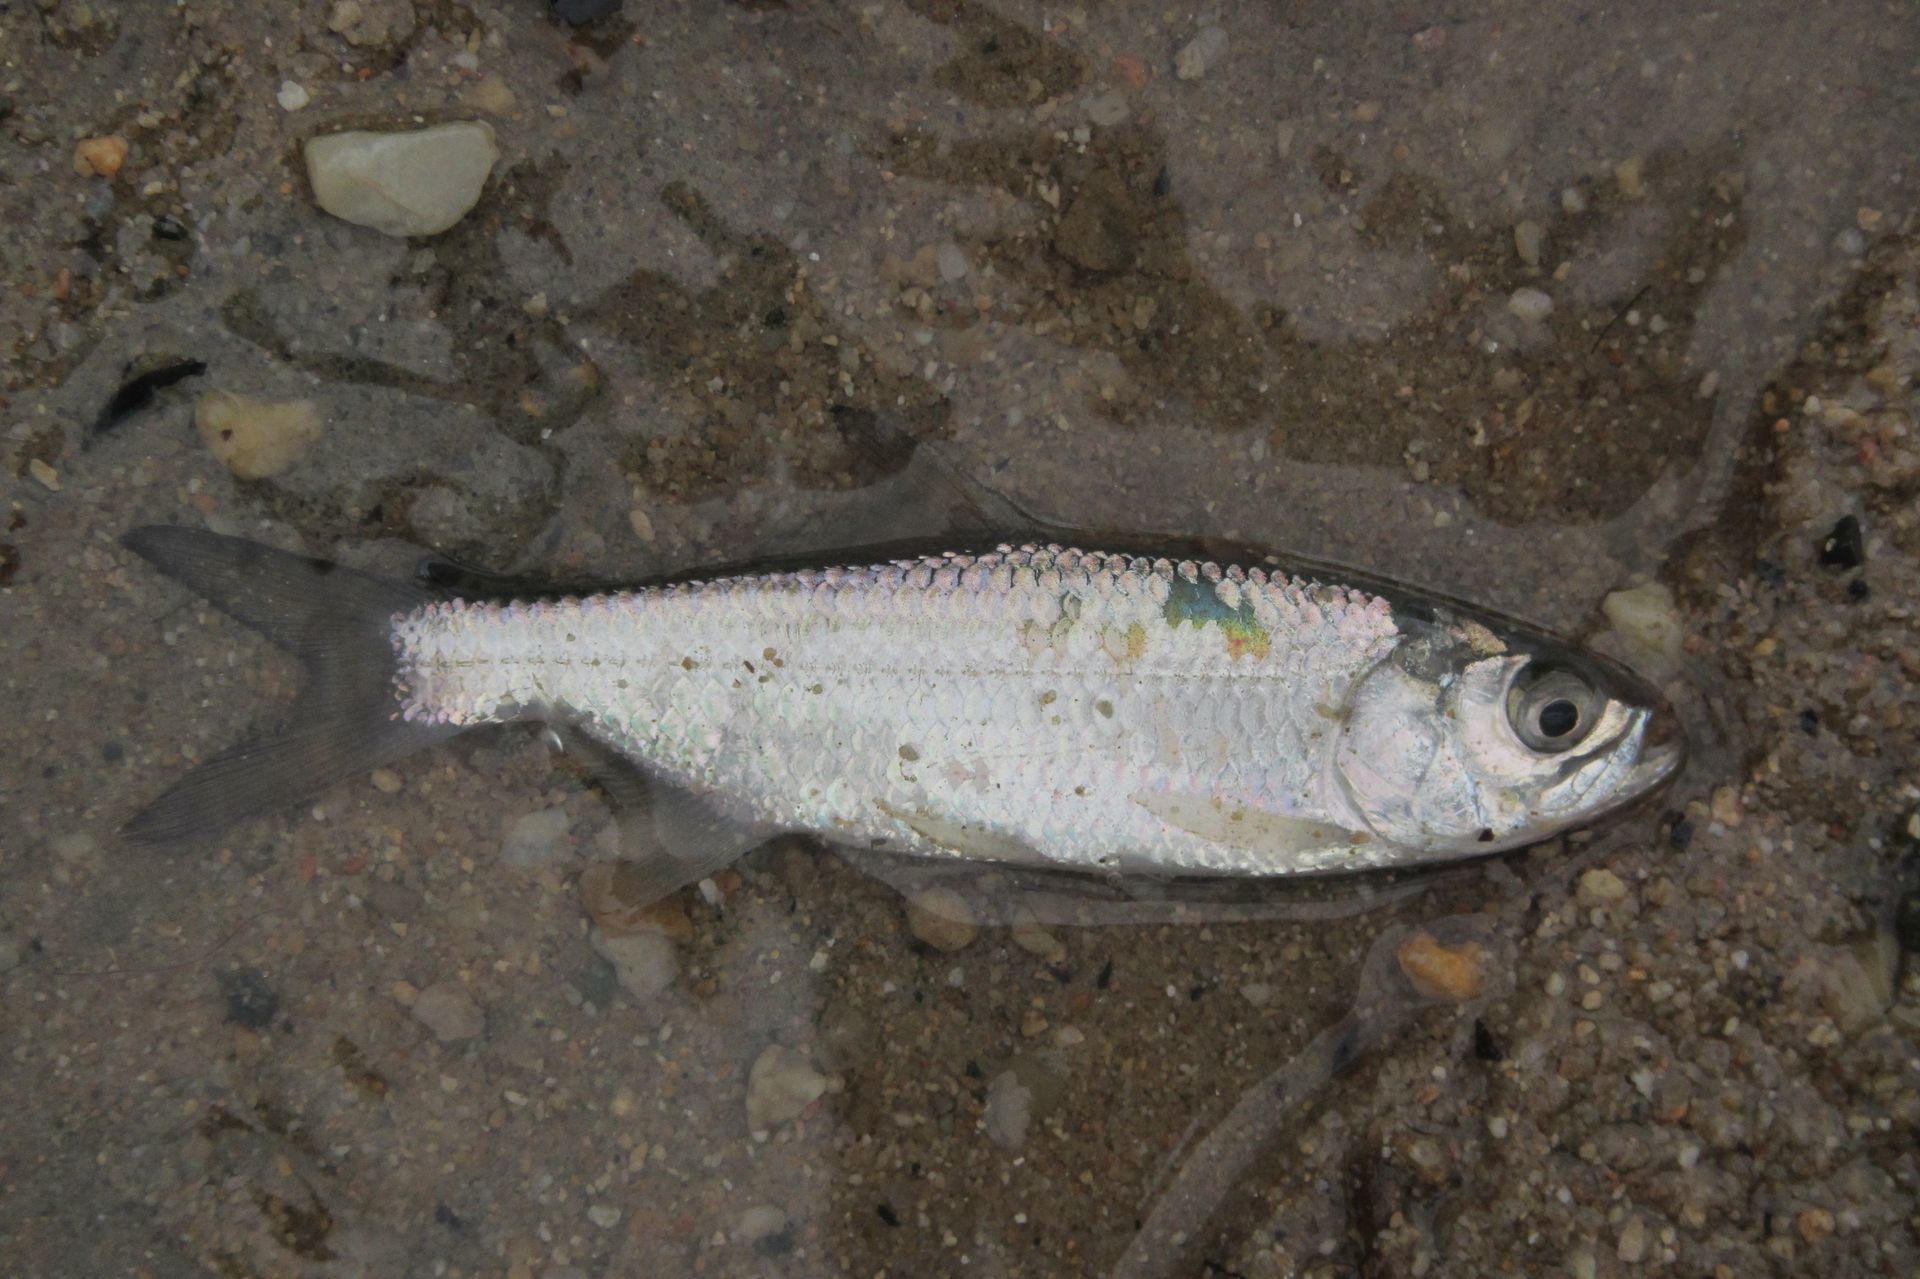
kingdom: Animalia
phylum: Chordata
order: Elopiformes
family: Megalopidae
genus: Megalops
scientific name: Megalops cyprinoides
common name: Indo-pacific tarpon
